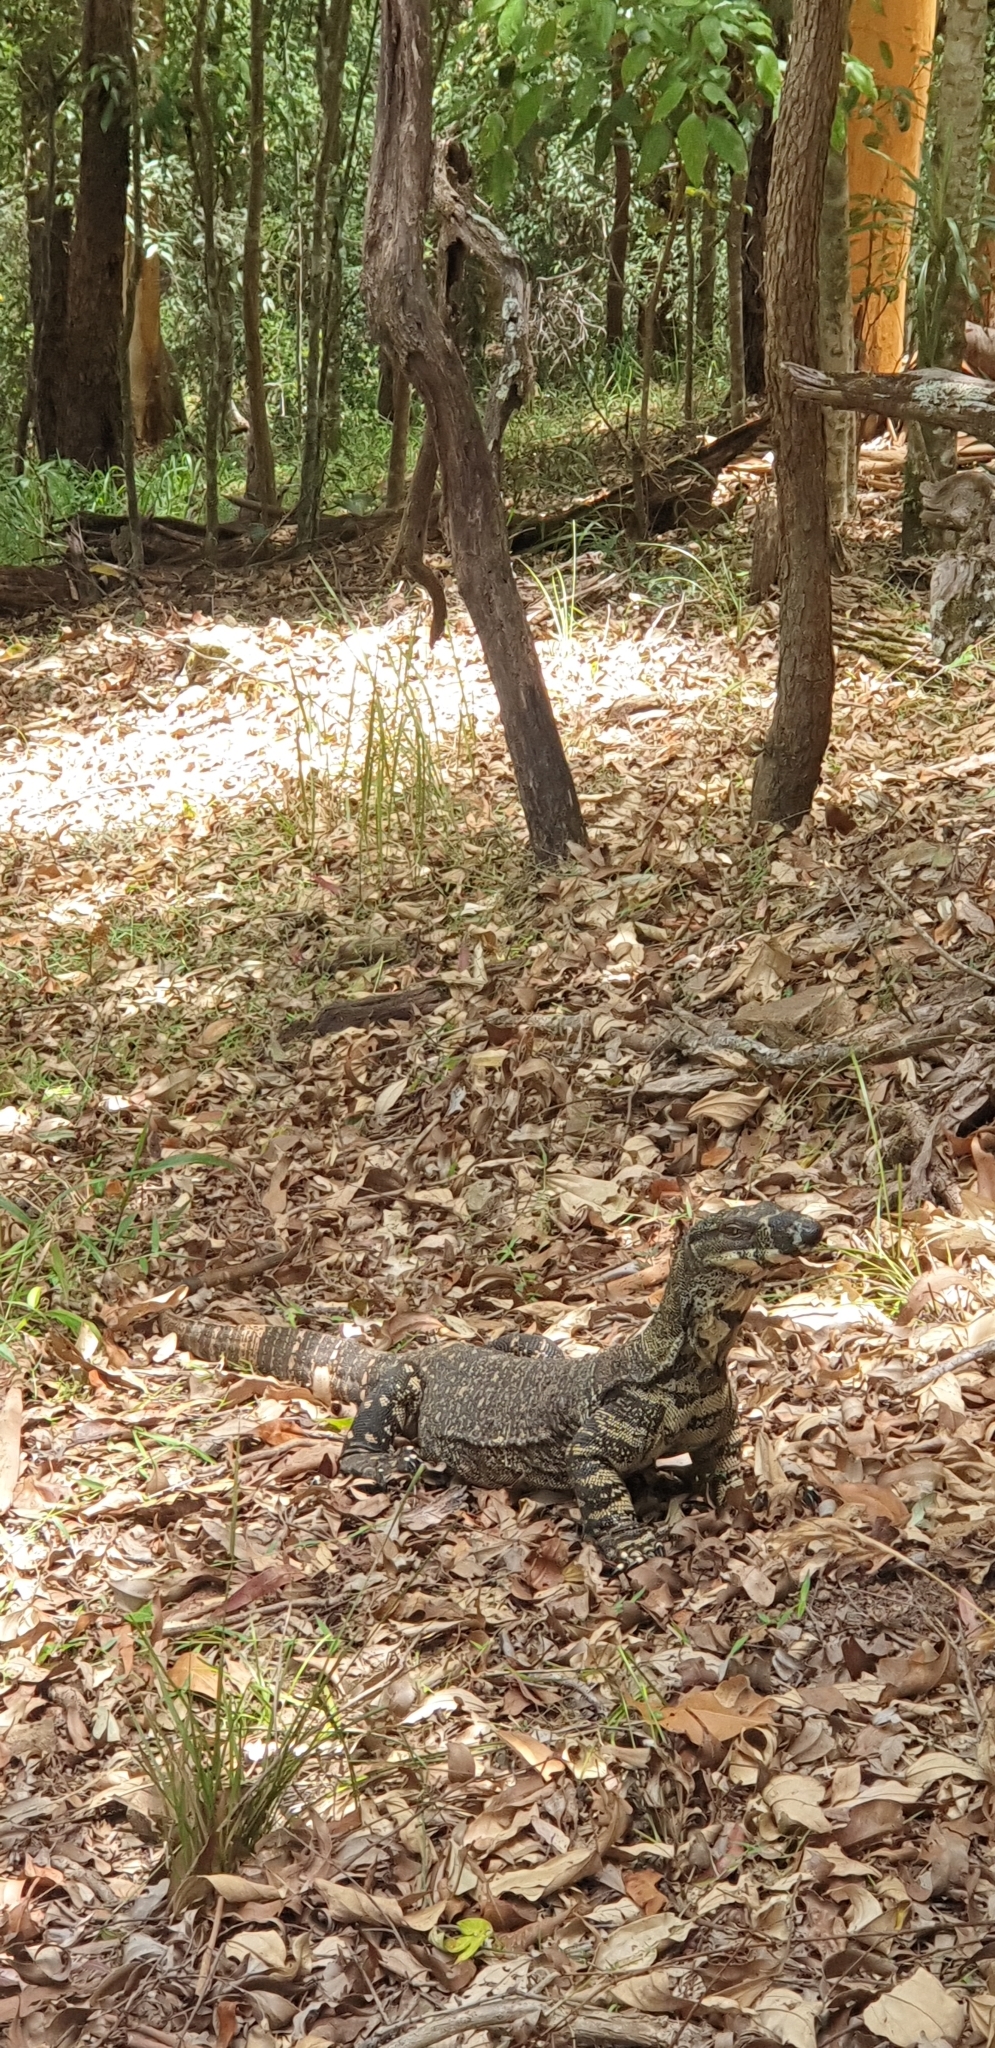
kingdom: Animalia
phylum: Chordata
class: Squamata
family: Varanidae
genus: Varanus
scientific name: Varanus varius
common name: Lace monitor
